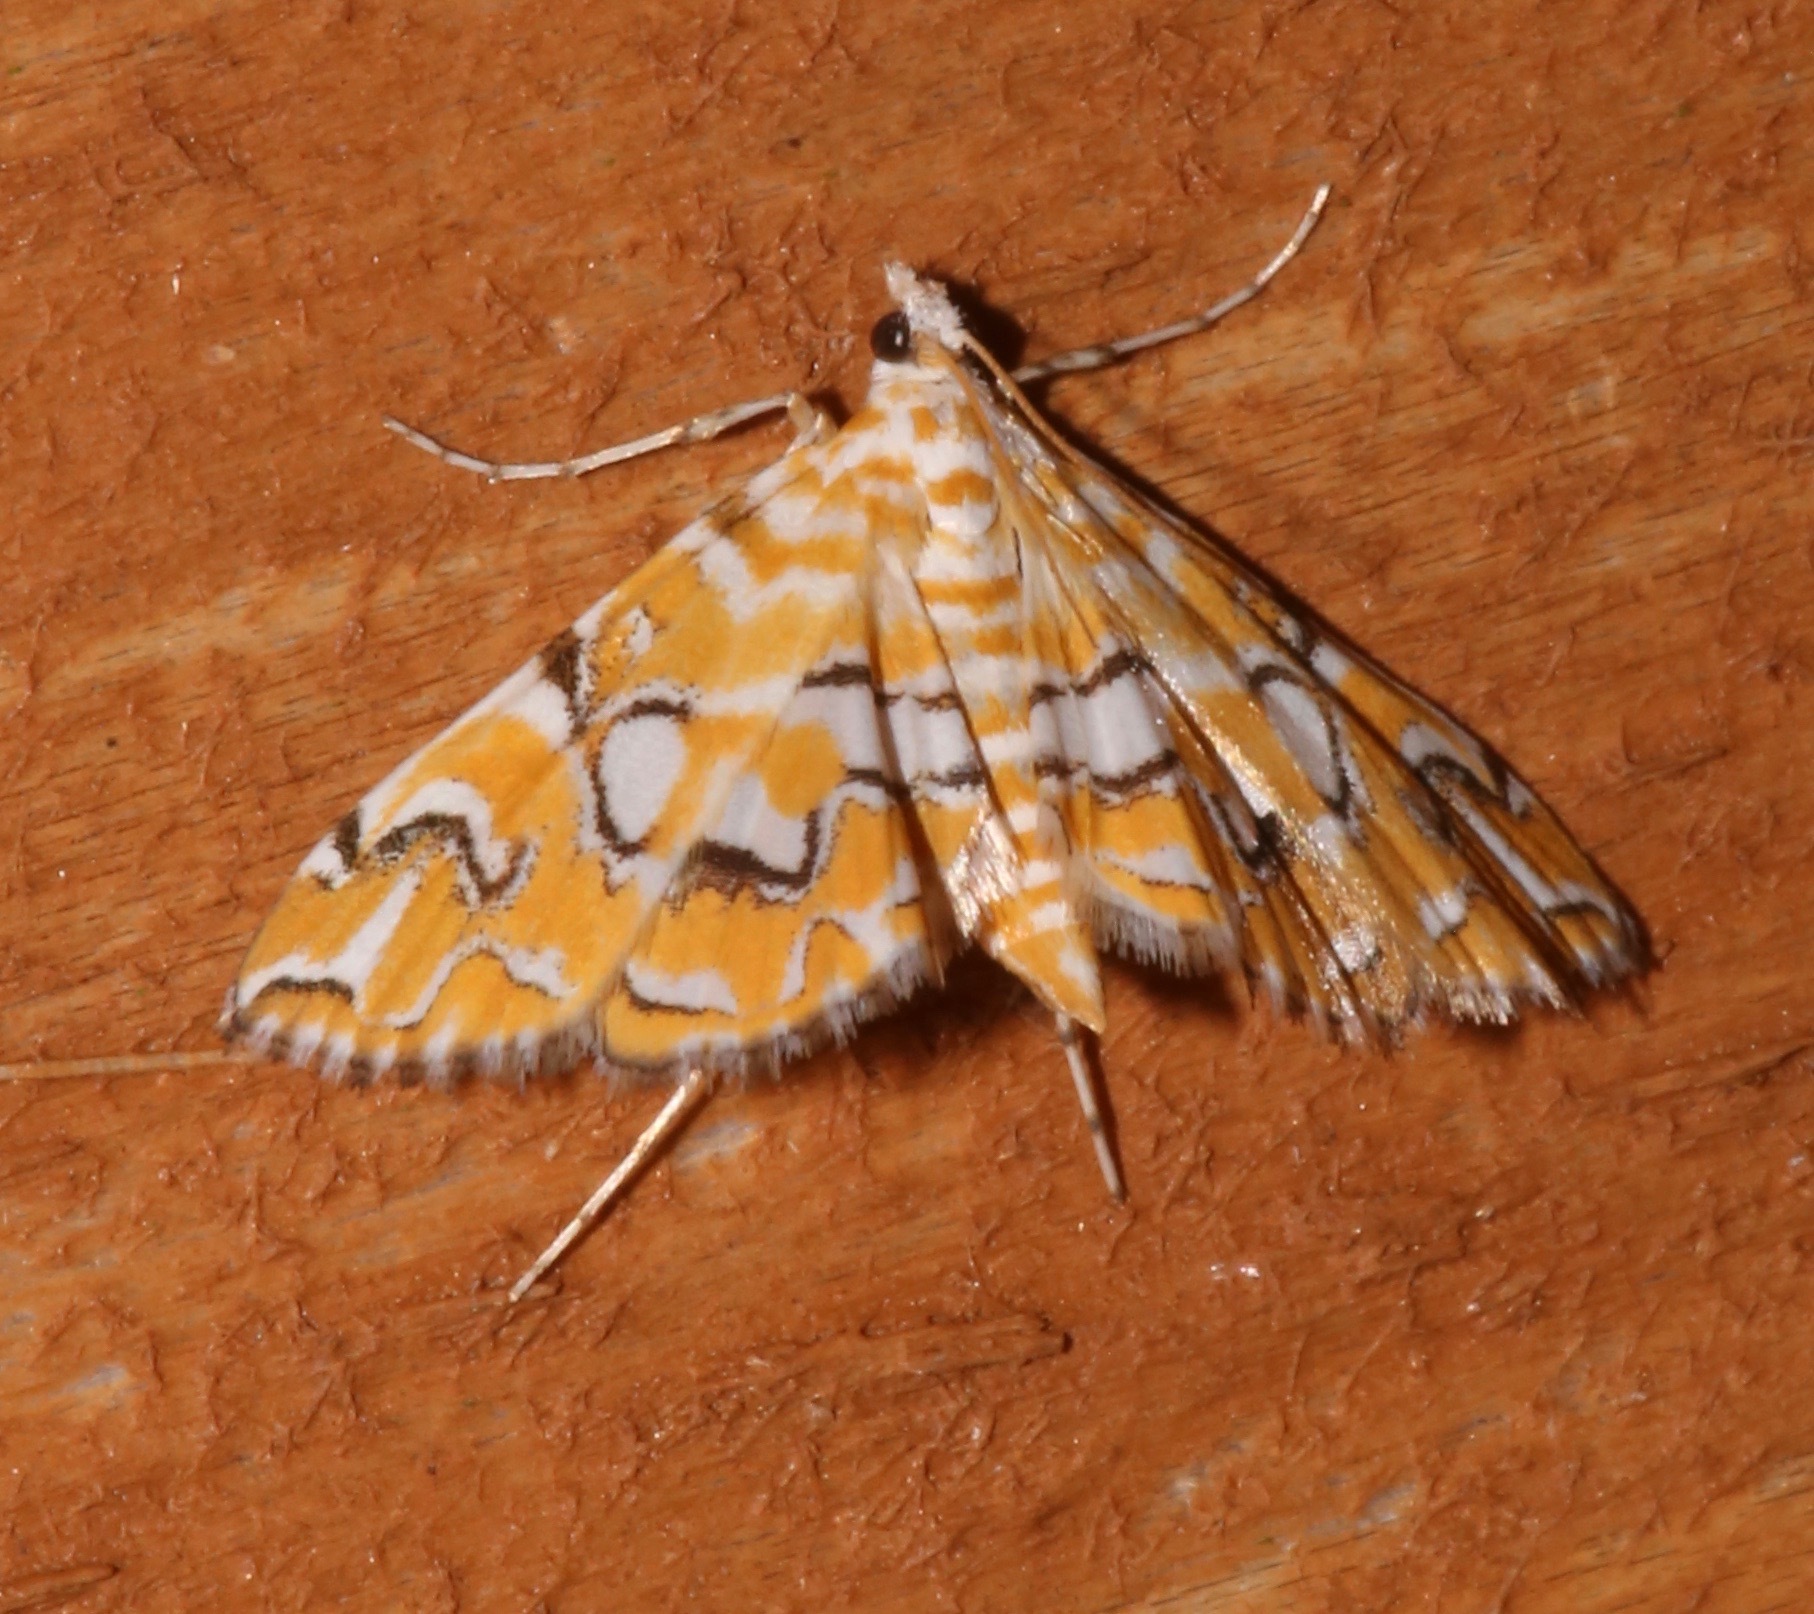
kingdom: Animalia
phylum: Arthropoda
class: Insecta
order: Lepidoptera
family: Crambidae
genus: Elophila
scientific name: Elophila icciusalis
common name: Pondside pyralid moth
